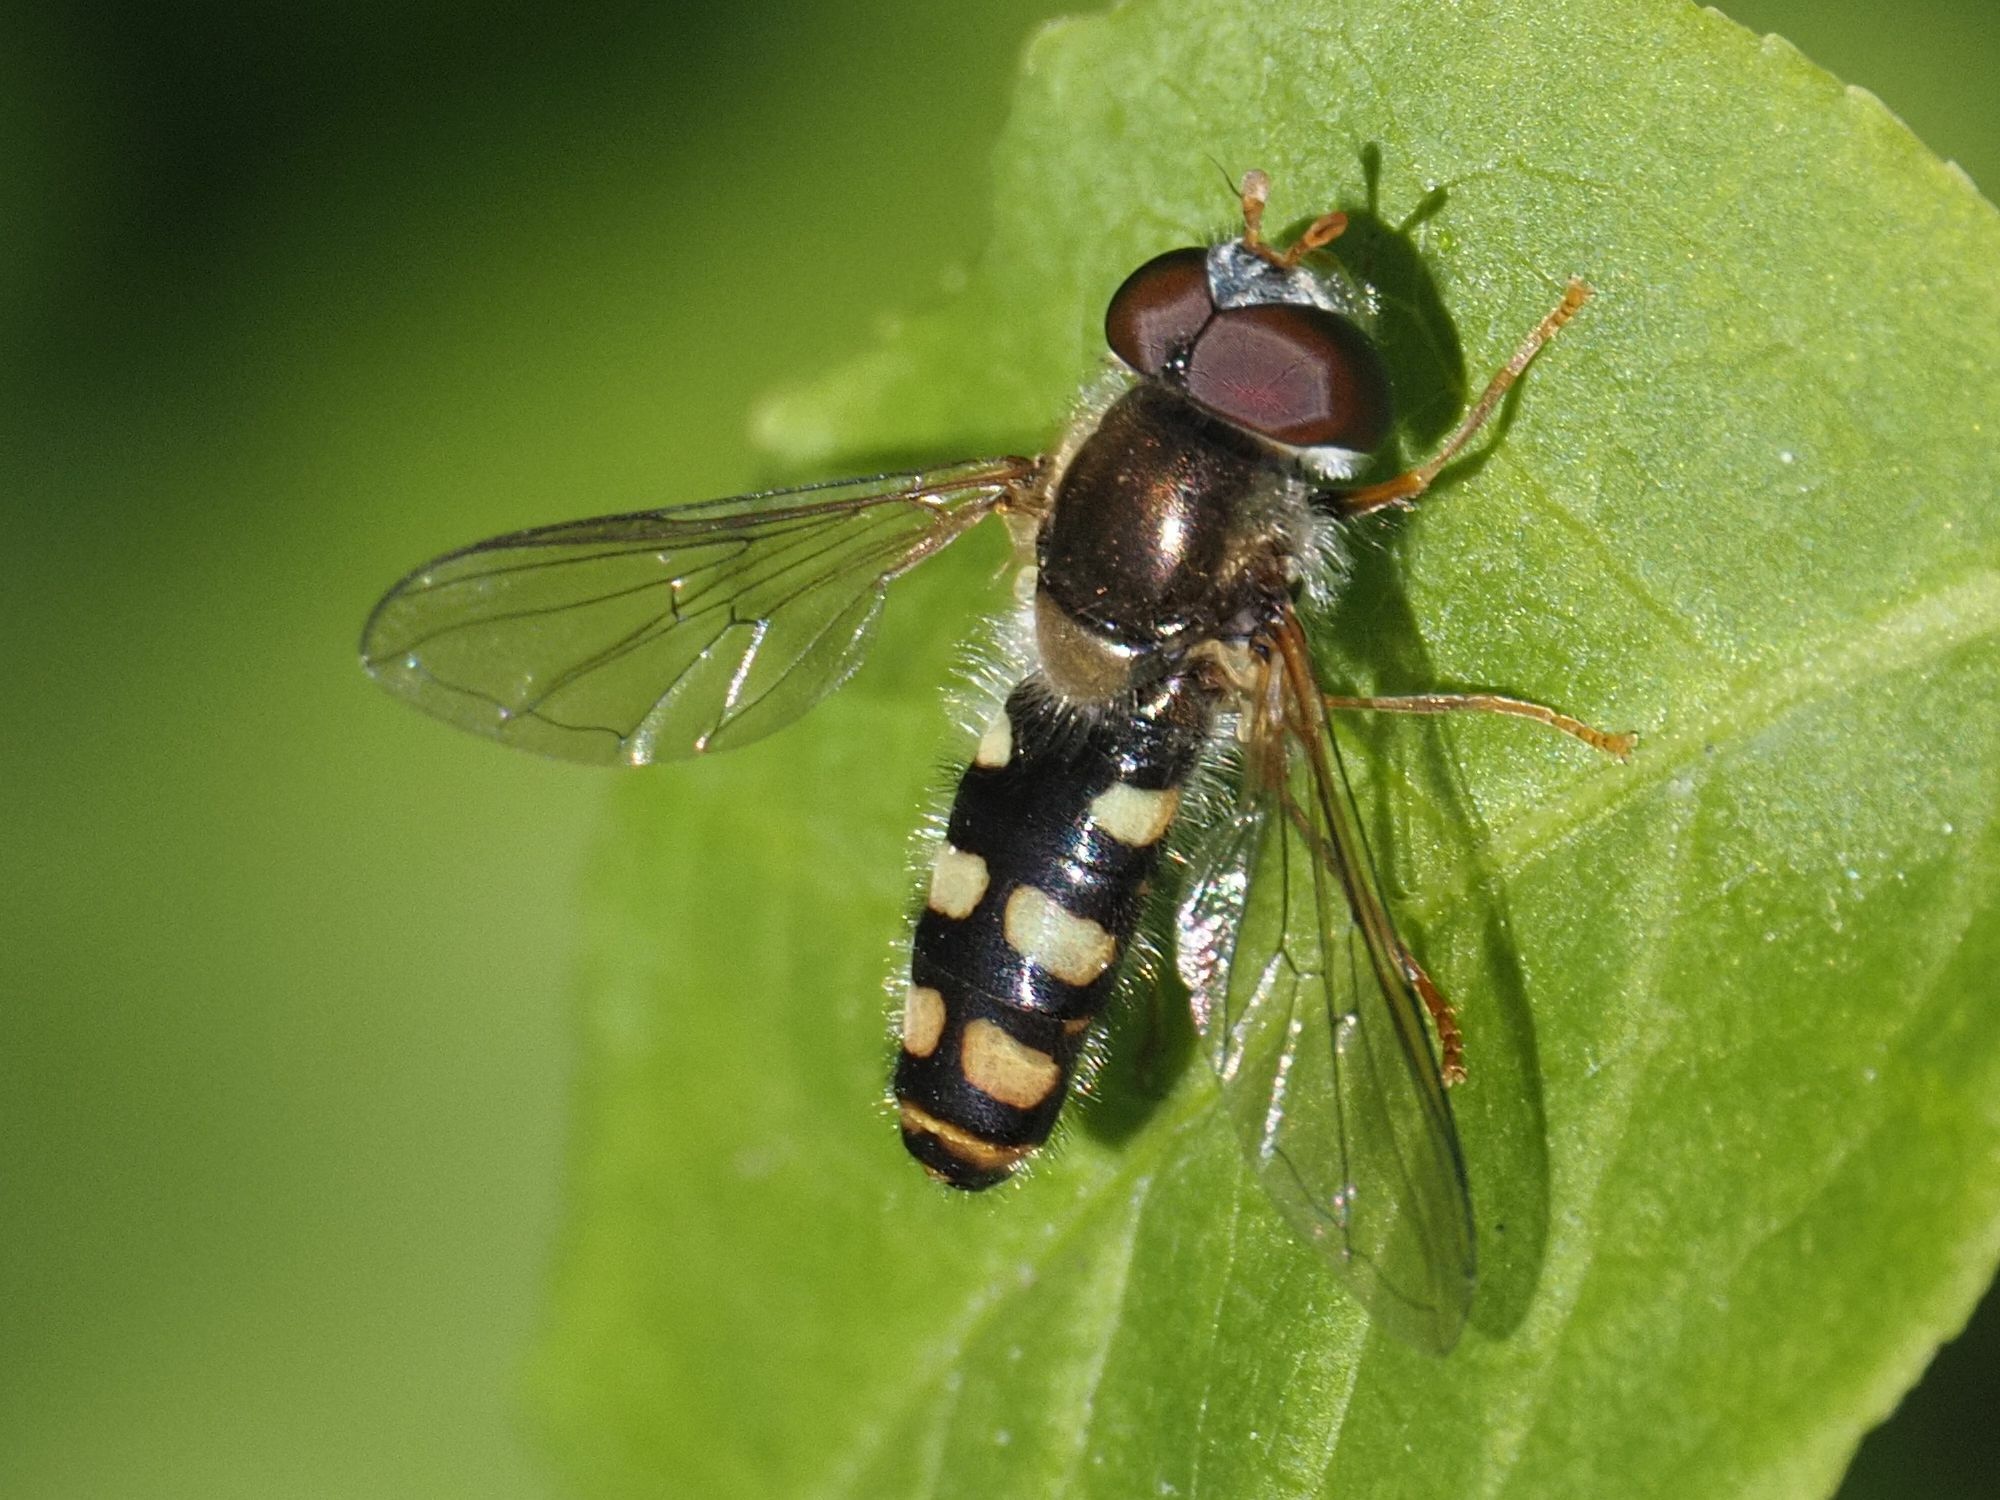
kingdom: Animalia
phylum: Arthropoda
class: Insecta
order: Diptera
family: Syrphidae
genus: Epistrophella
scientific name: Epistrophella euchromus
